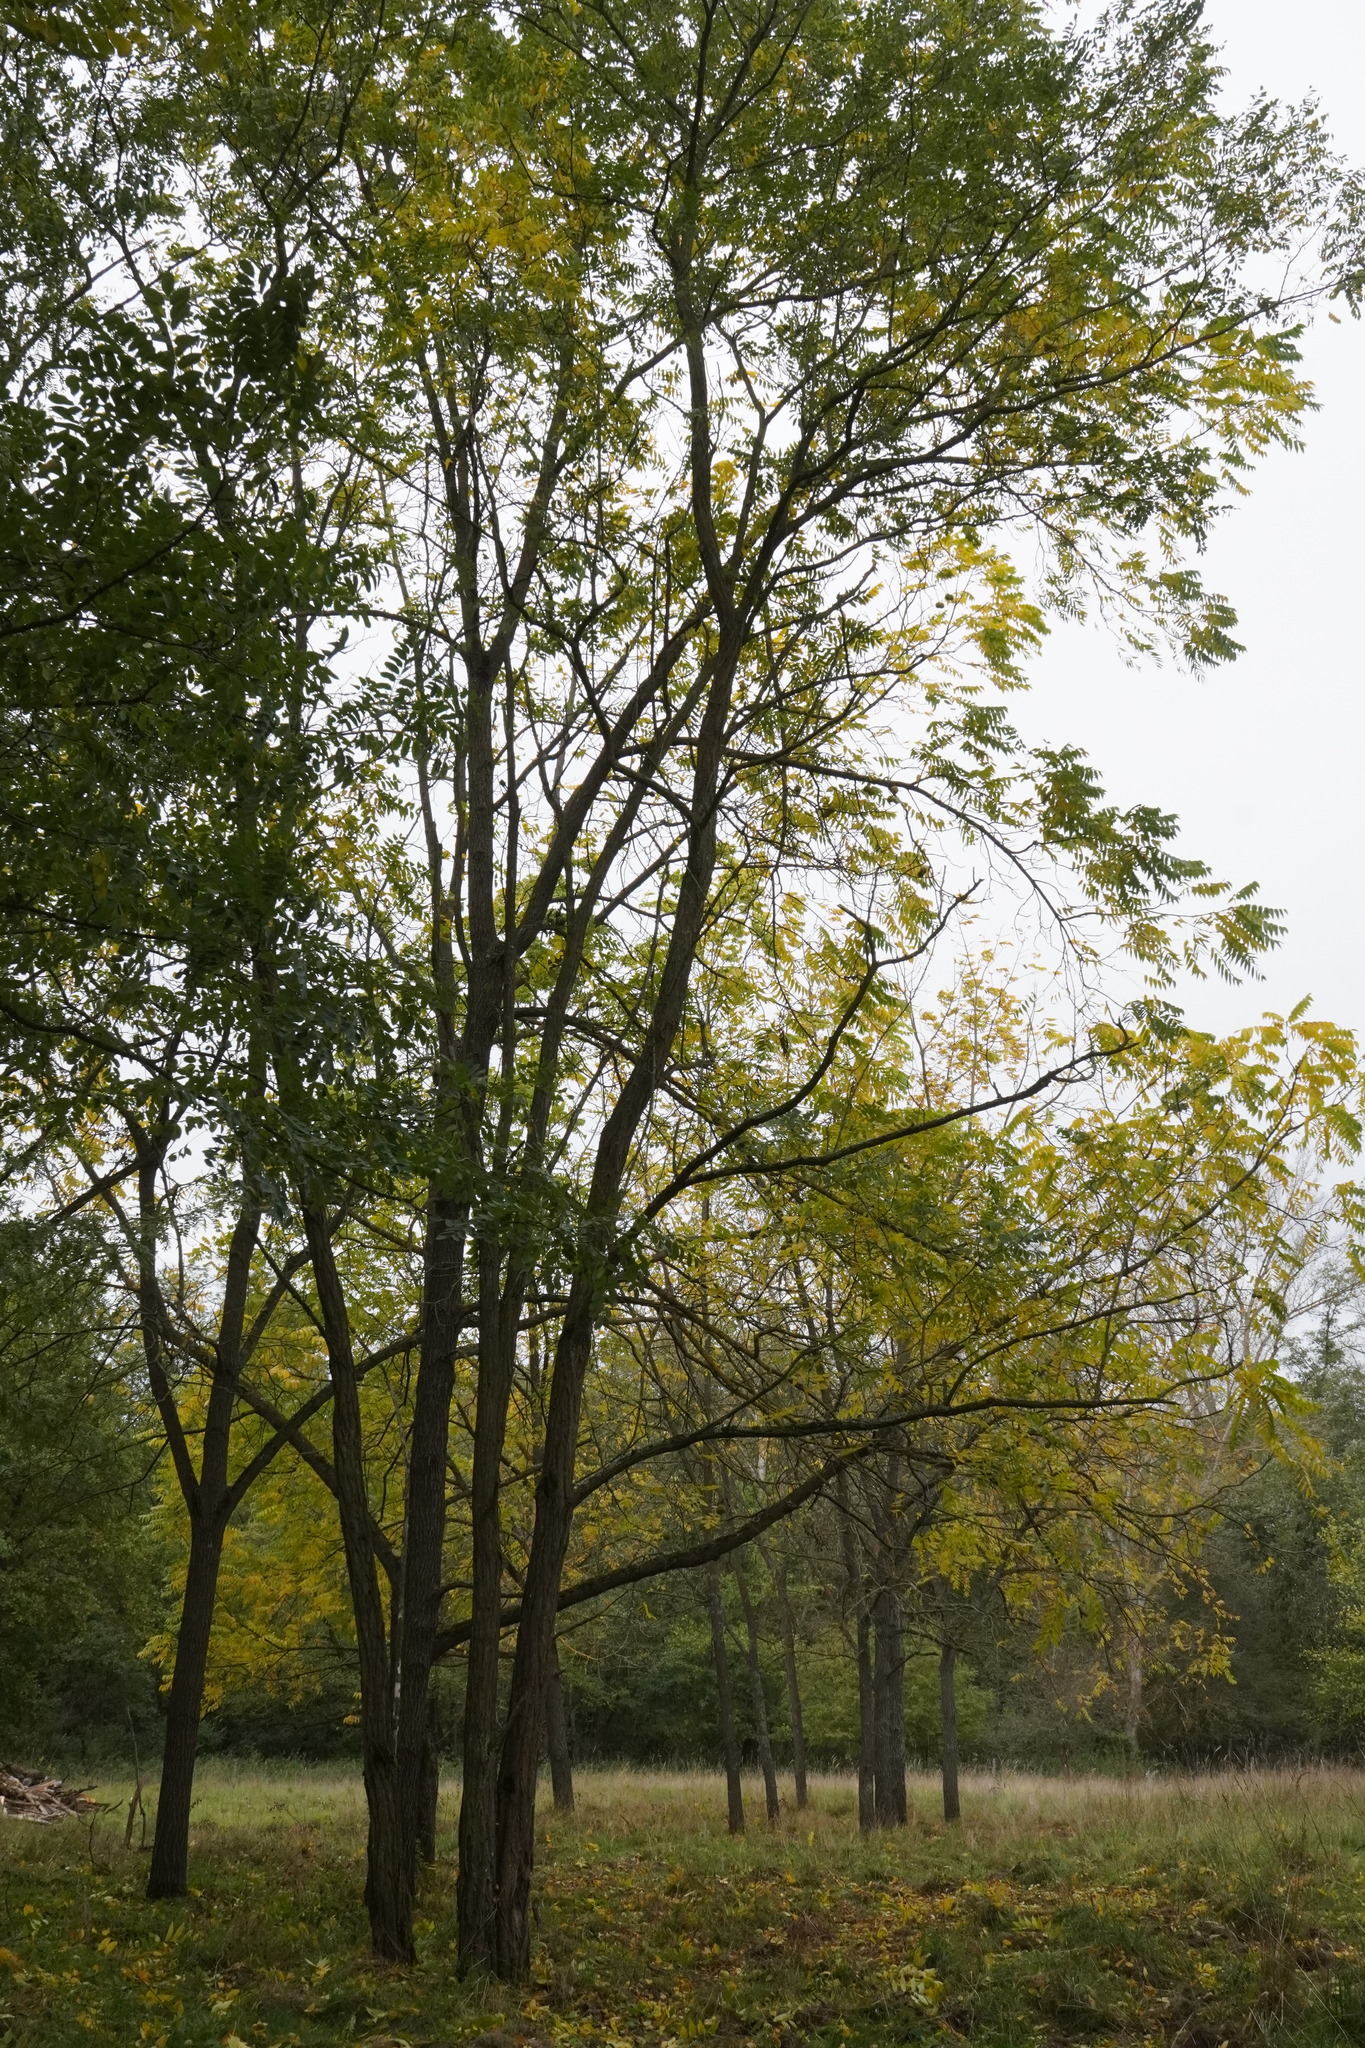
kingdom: Plantae
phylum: Tracheophyta
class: Magnoliopsida
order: Fagales
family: Juglandaceae
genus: Juglans
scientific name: Juglans nigra
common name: Black walnut
